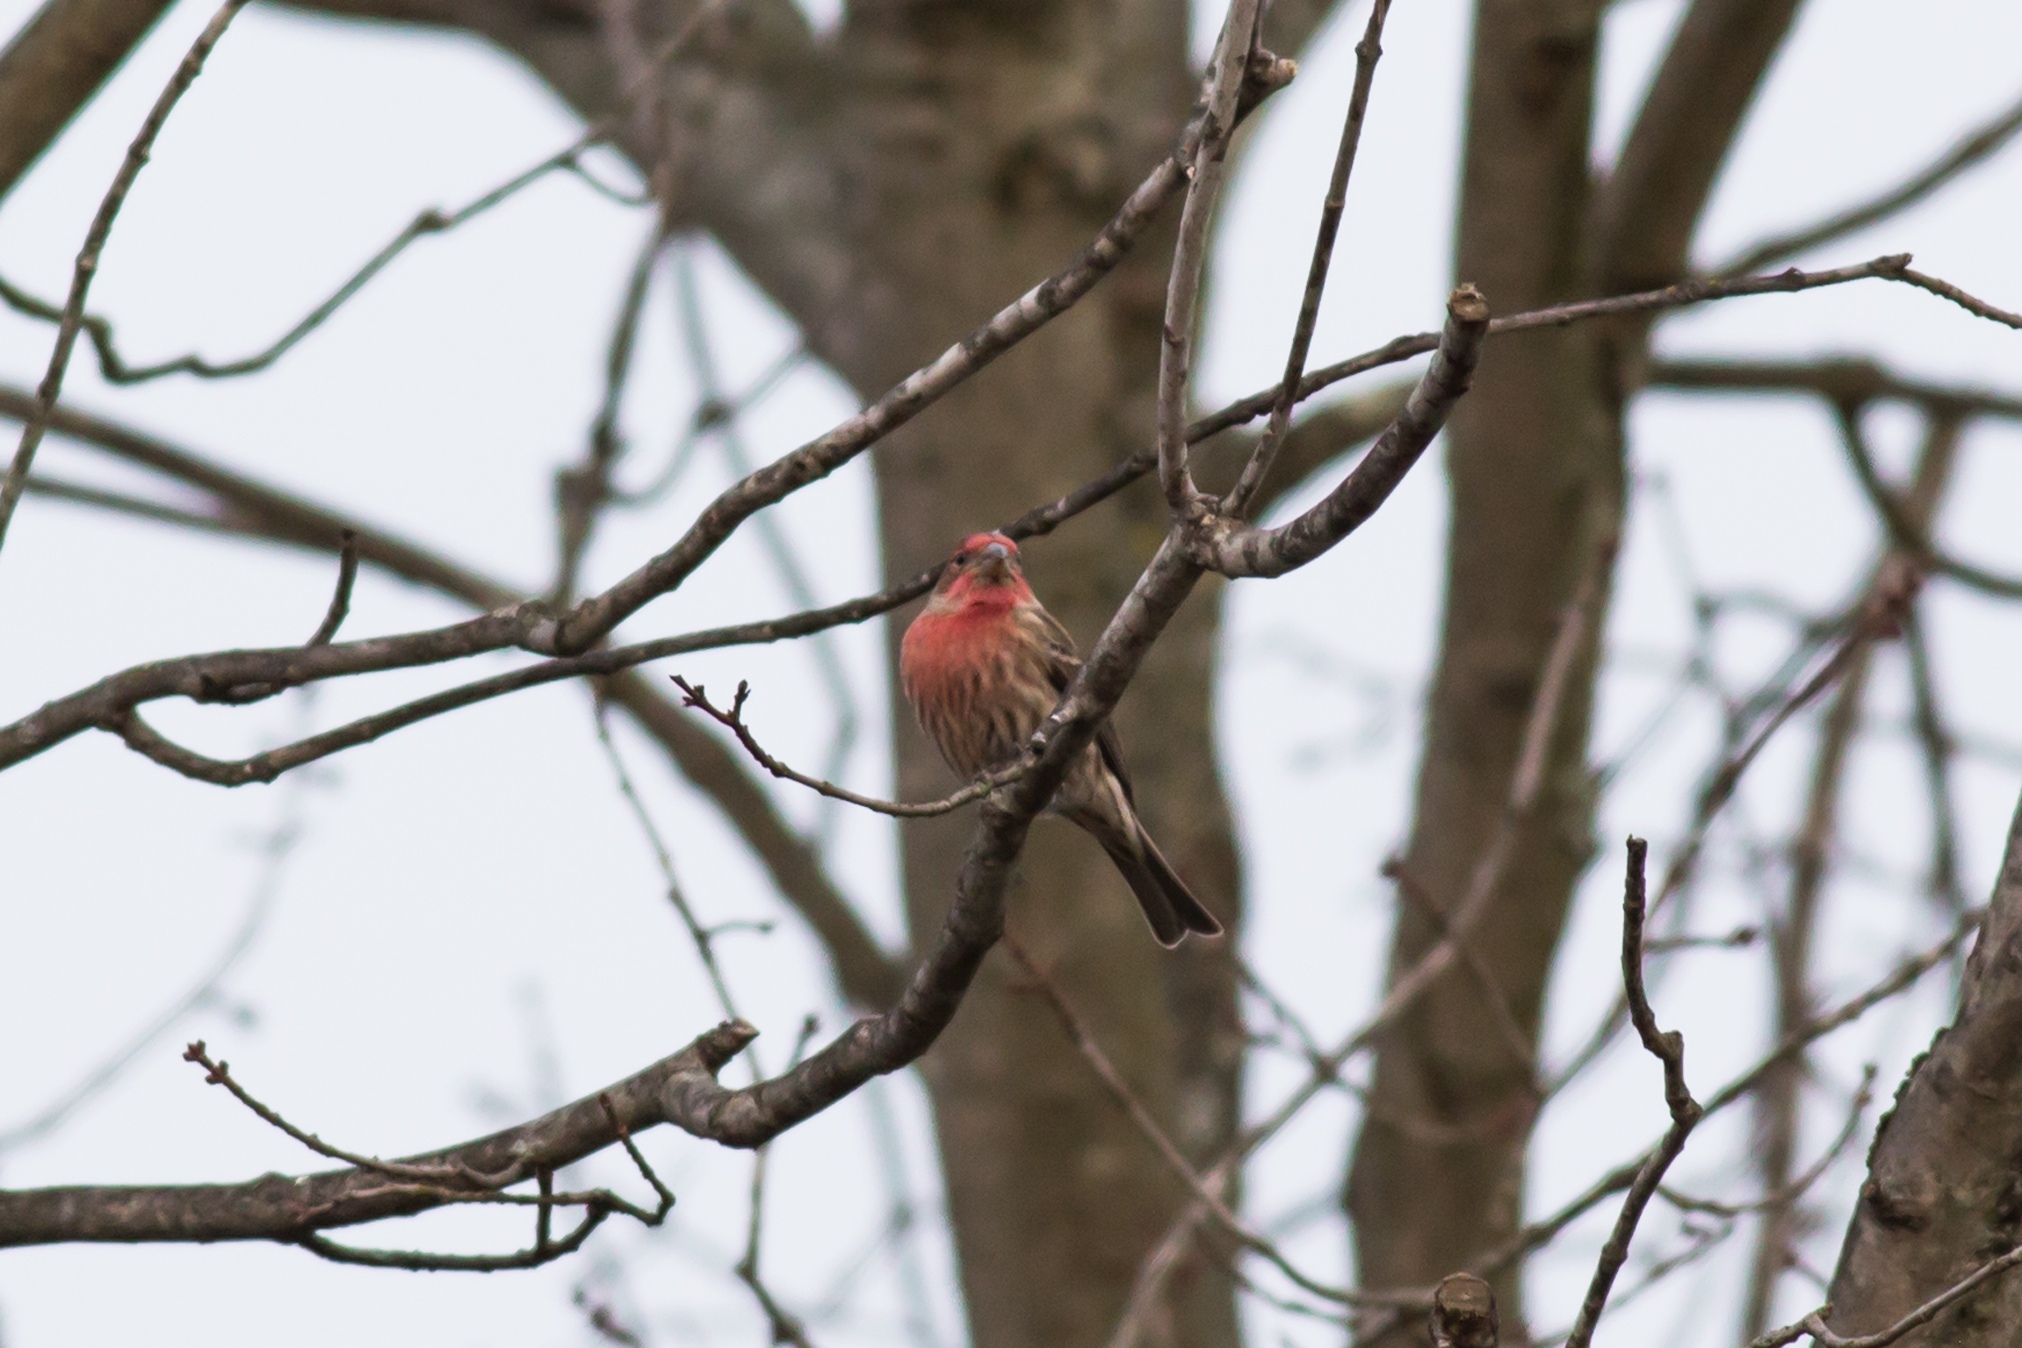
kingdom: Animalia
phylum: Chordata
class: Aves
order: Passeriformes
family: Fringillidae
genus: Haemorhous
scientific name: Haemorhous mexicanus
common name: House finch
